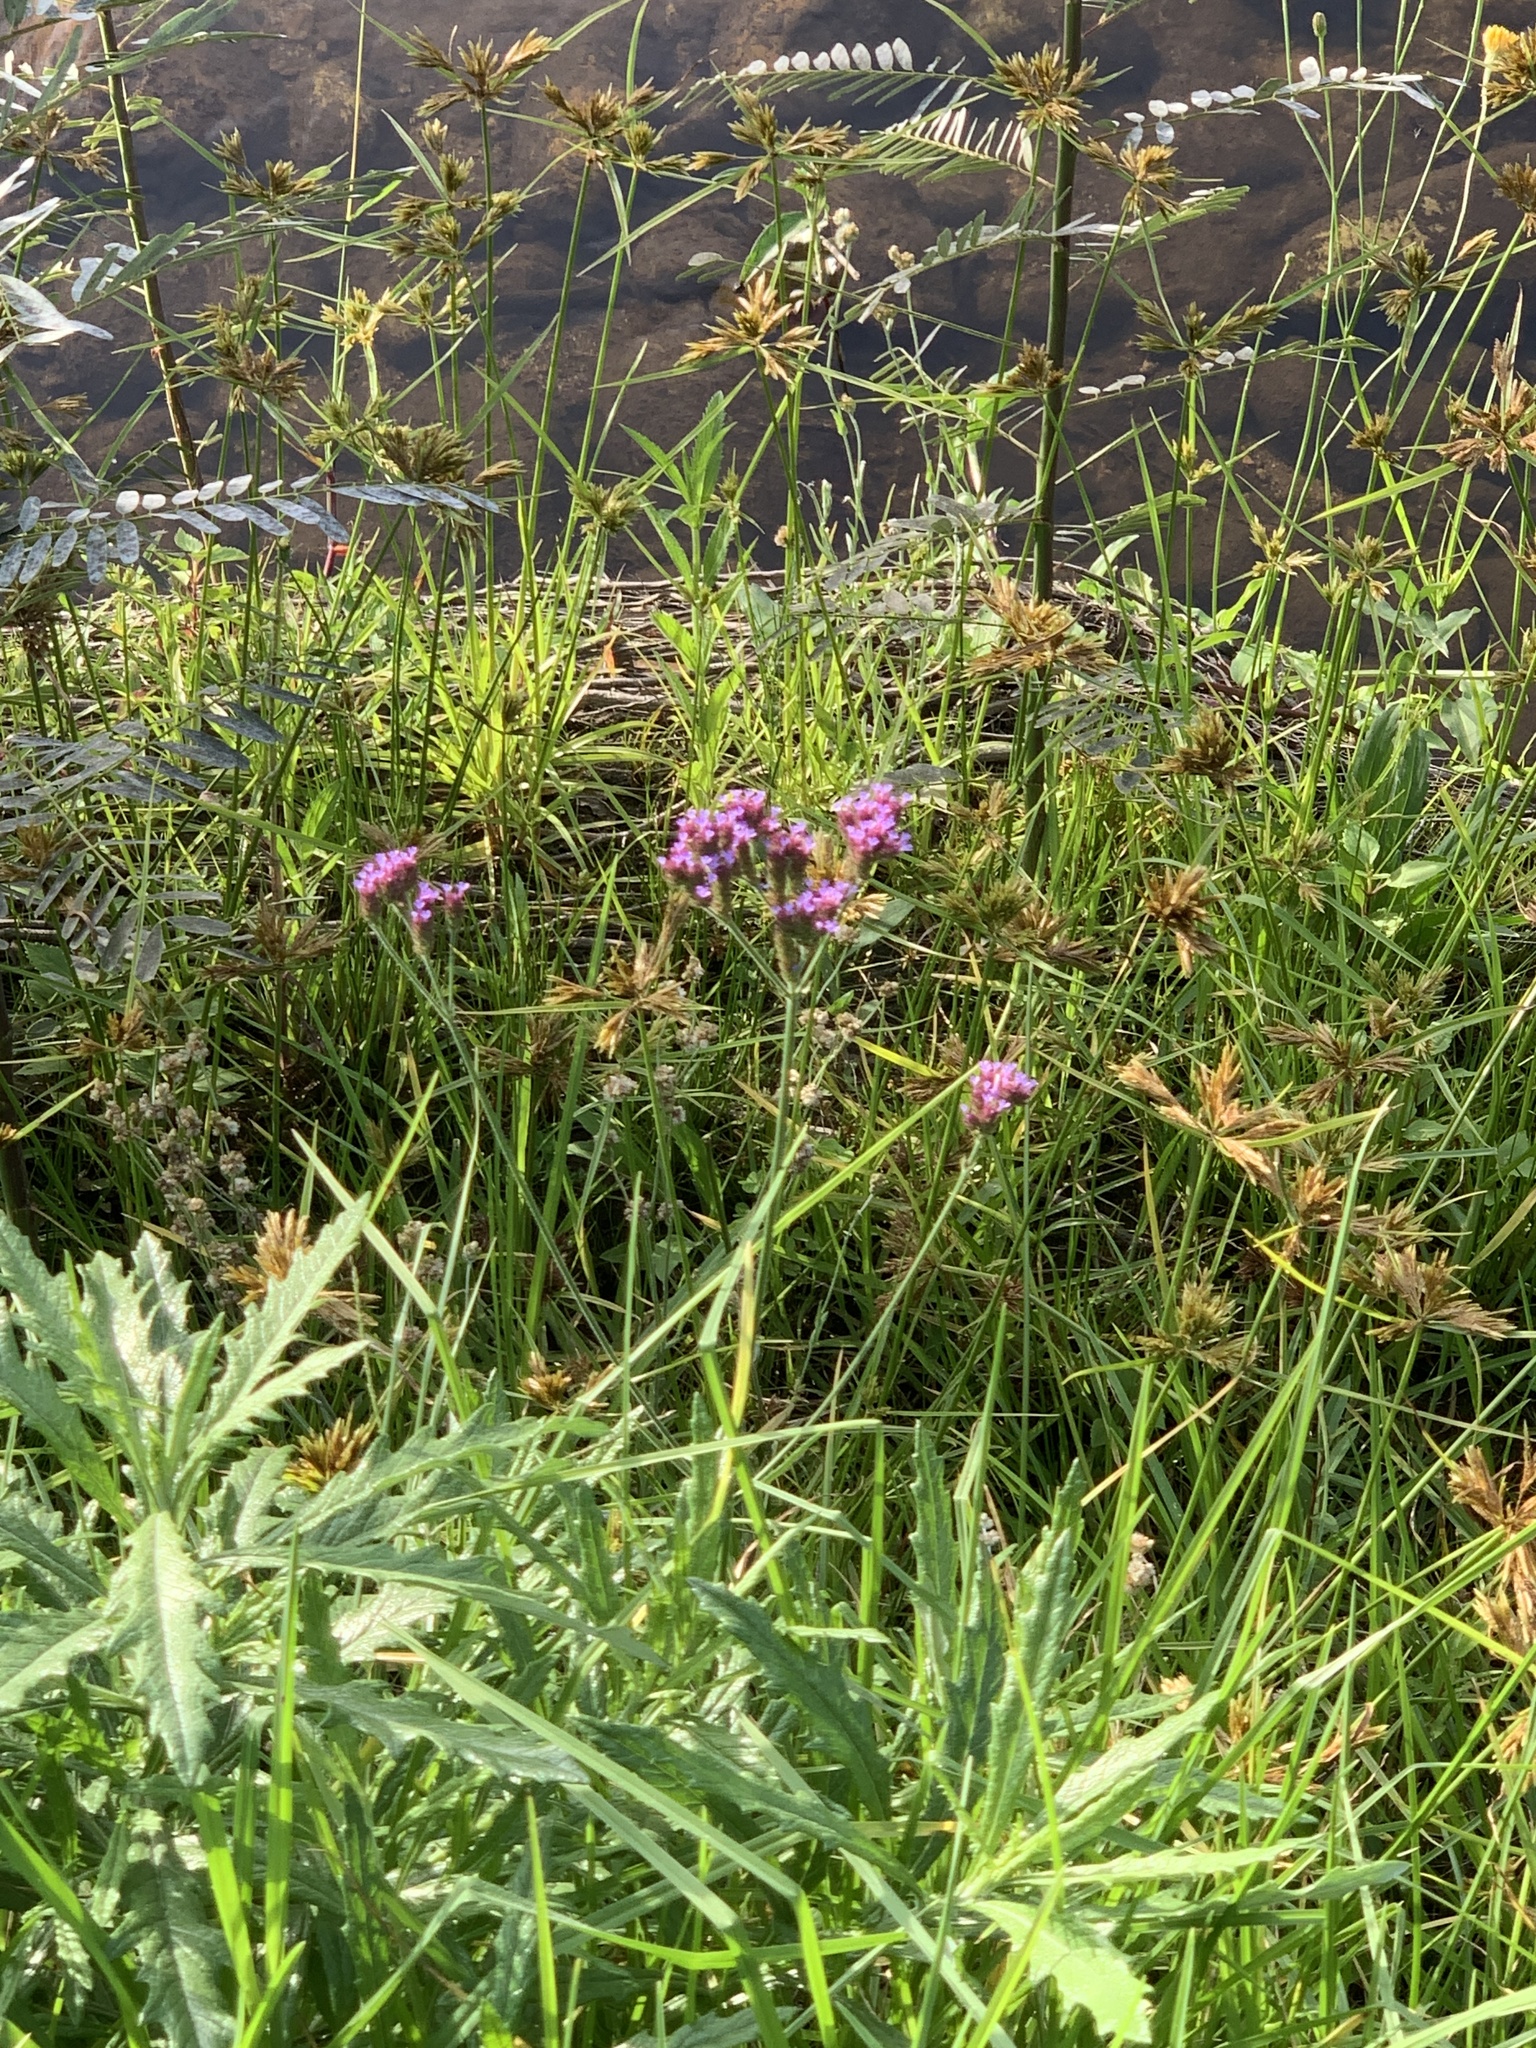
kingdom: Plantae
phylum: Tracheophyta
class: Magnoliopsida
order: Lamiales
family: Verbenaceae
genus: Verbena
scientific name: Verbena bonariensis
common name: Purpletop vervain
